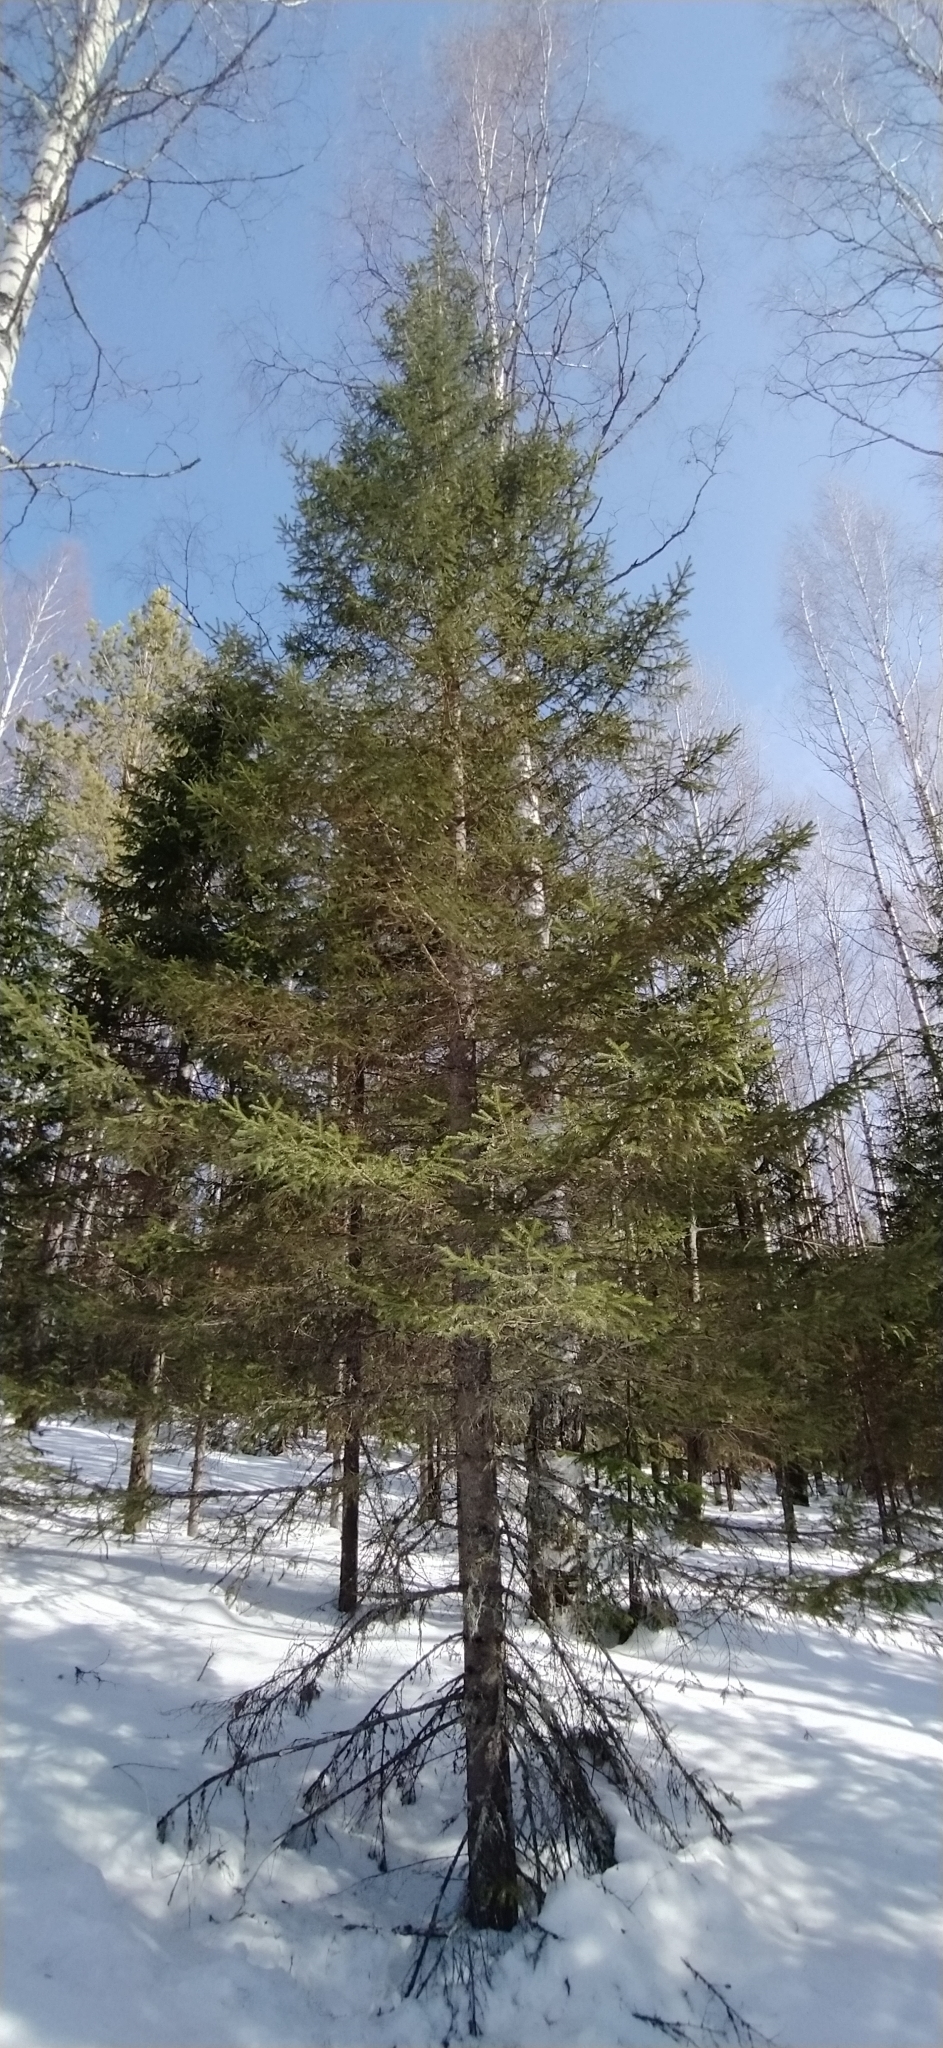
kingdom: Plantae
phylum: Tracheophyta
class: Pinopsida
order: Pinales
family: Pinaceae
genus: Picea
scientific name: Picea obovata
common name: Siberian spruce
